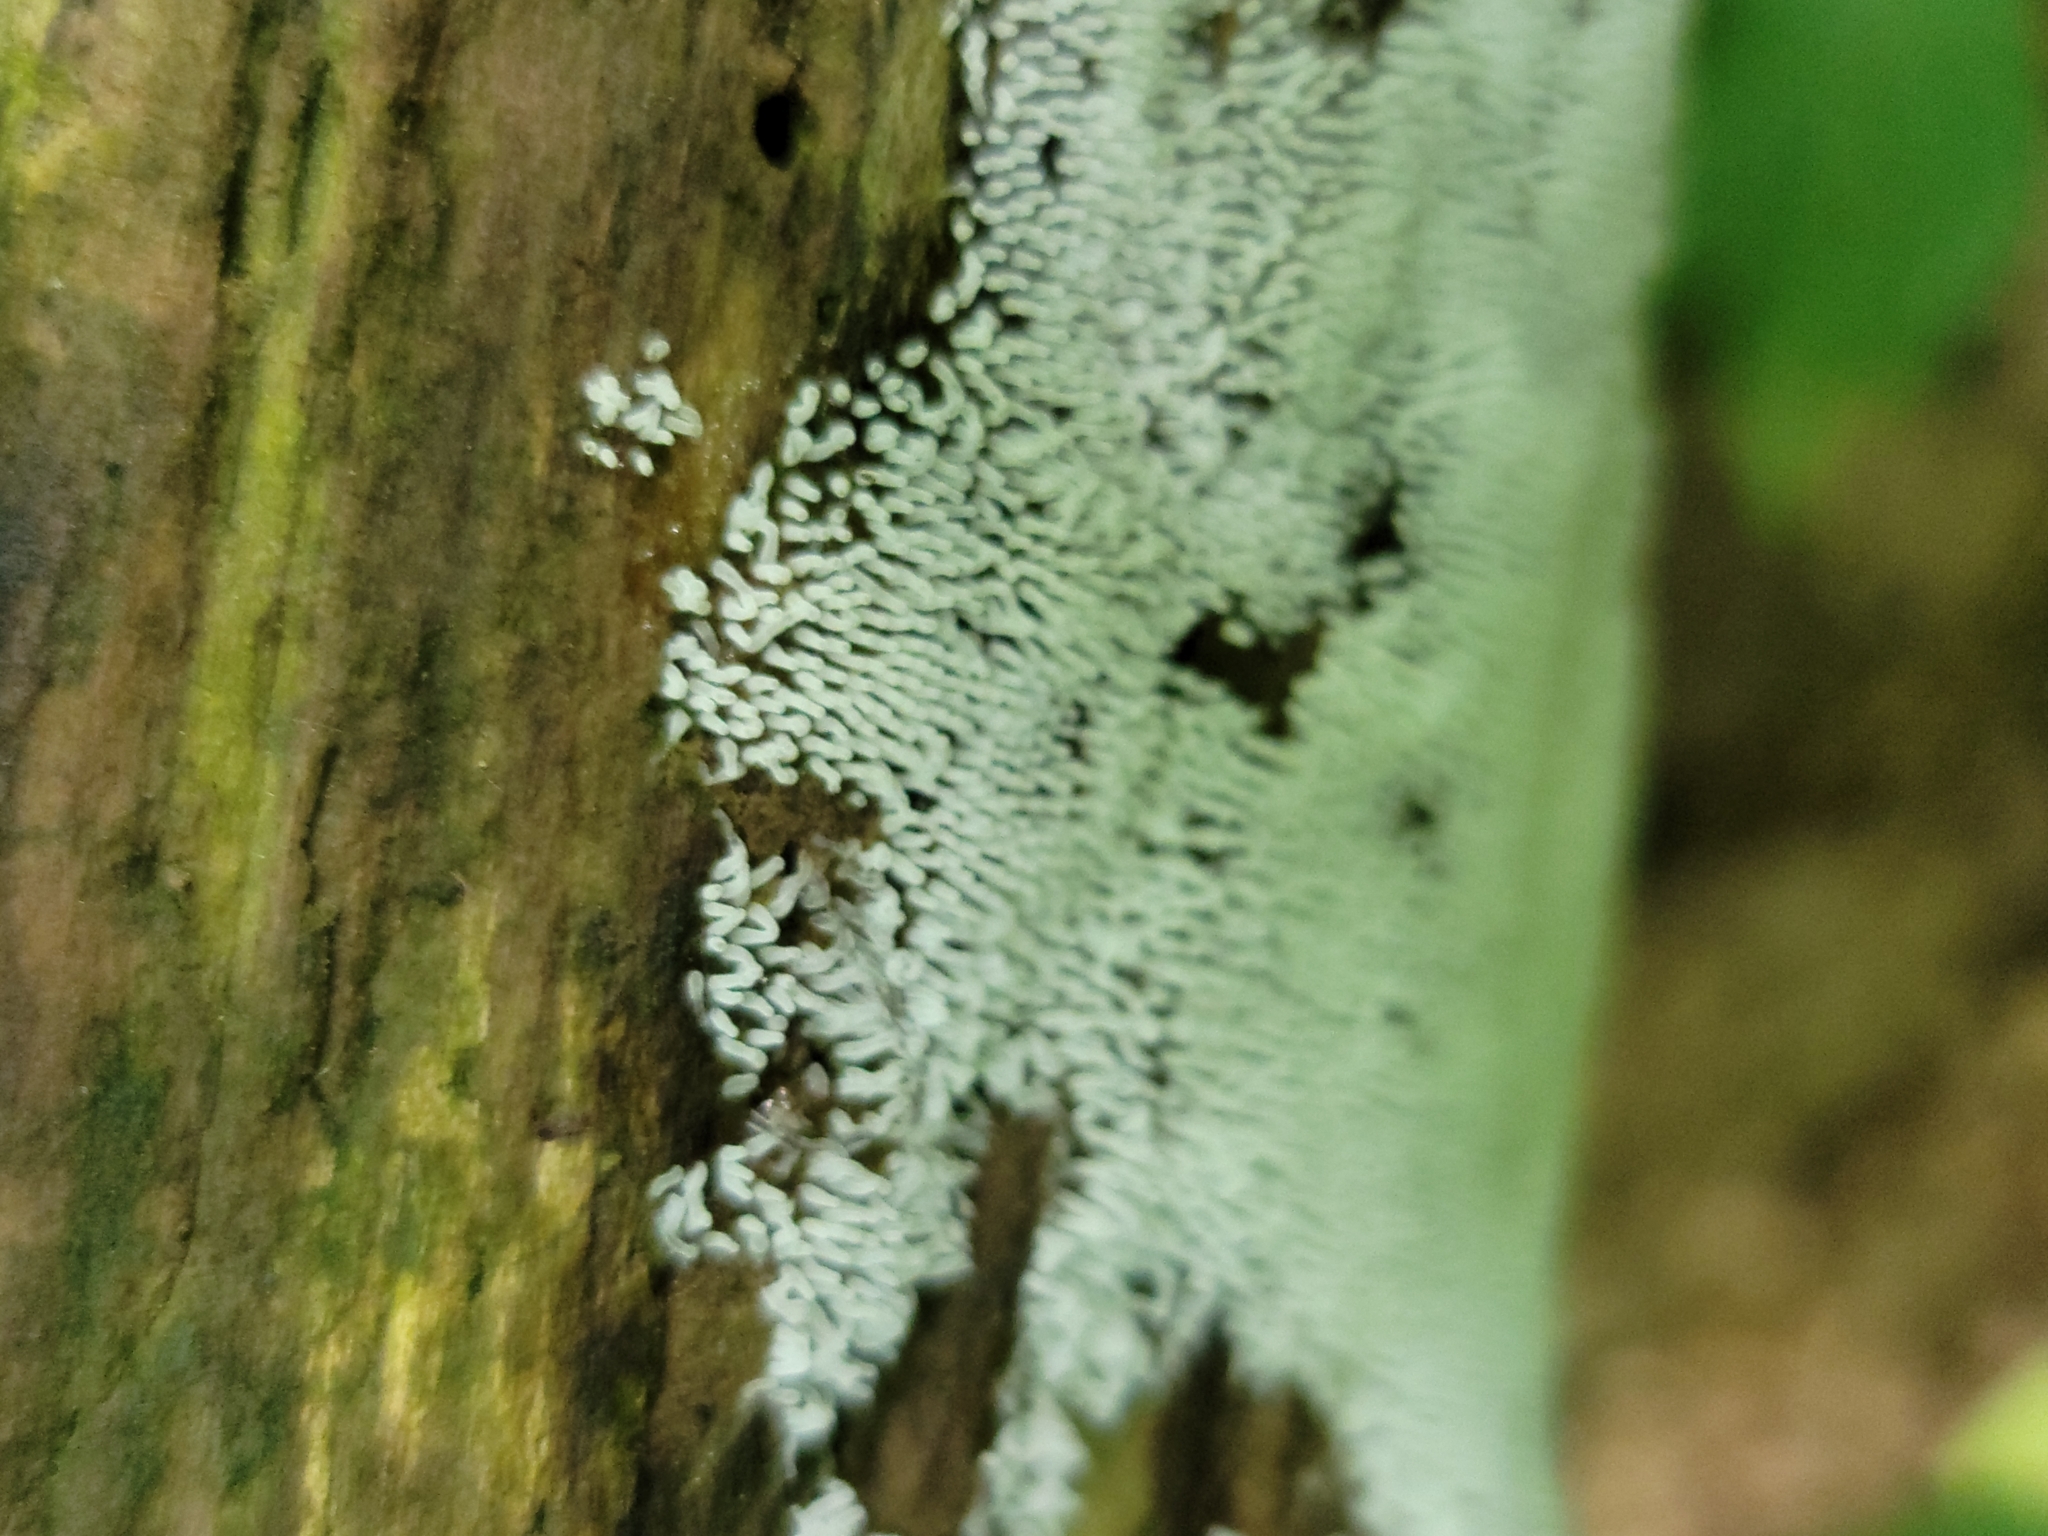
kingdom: Protozoa
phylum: Mycetozoa
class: Protosteliomycetes
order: Ceratiomyxales
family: Ceratiomyxaceae
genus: Ceratiomyxa
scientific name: Ceratiomyxa fruticulosa
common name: Honeycomb coral slime mold
